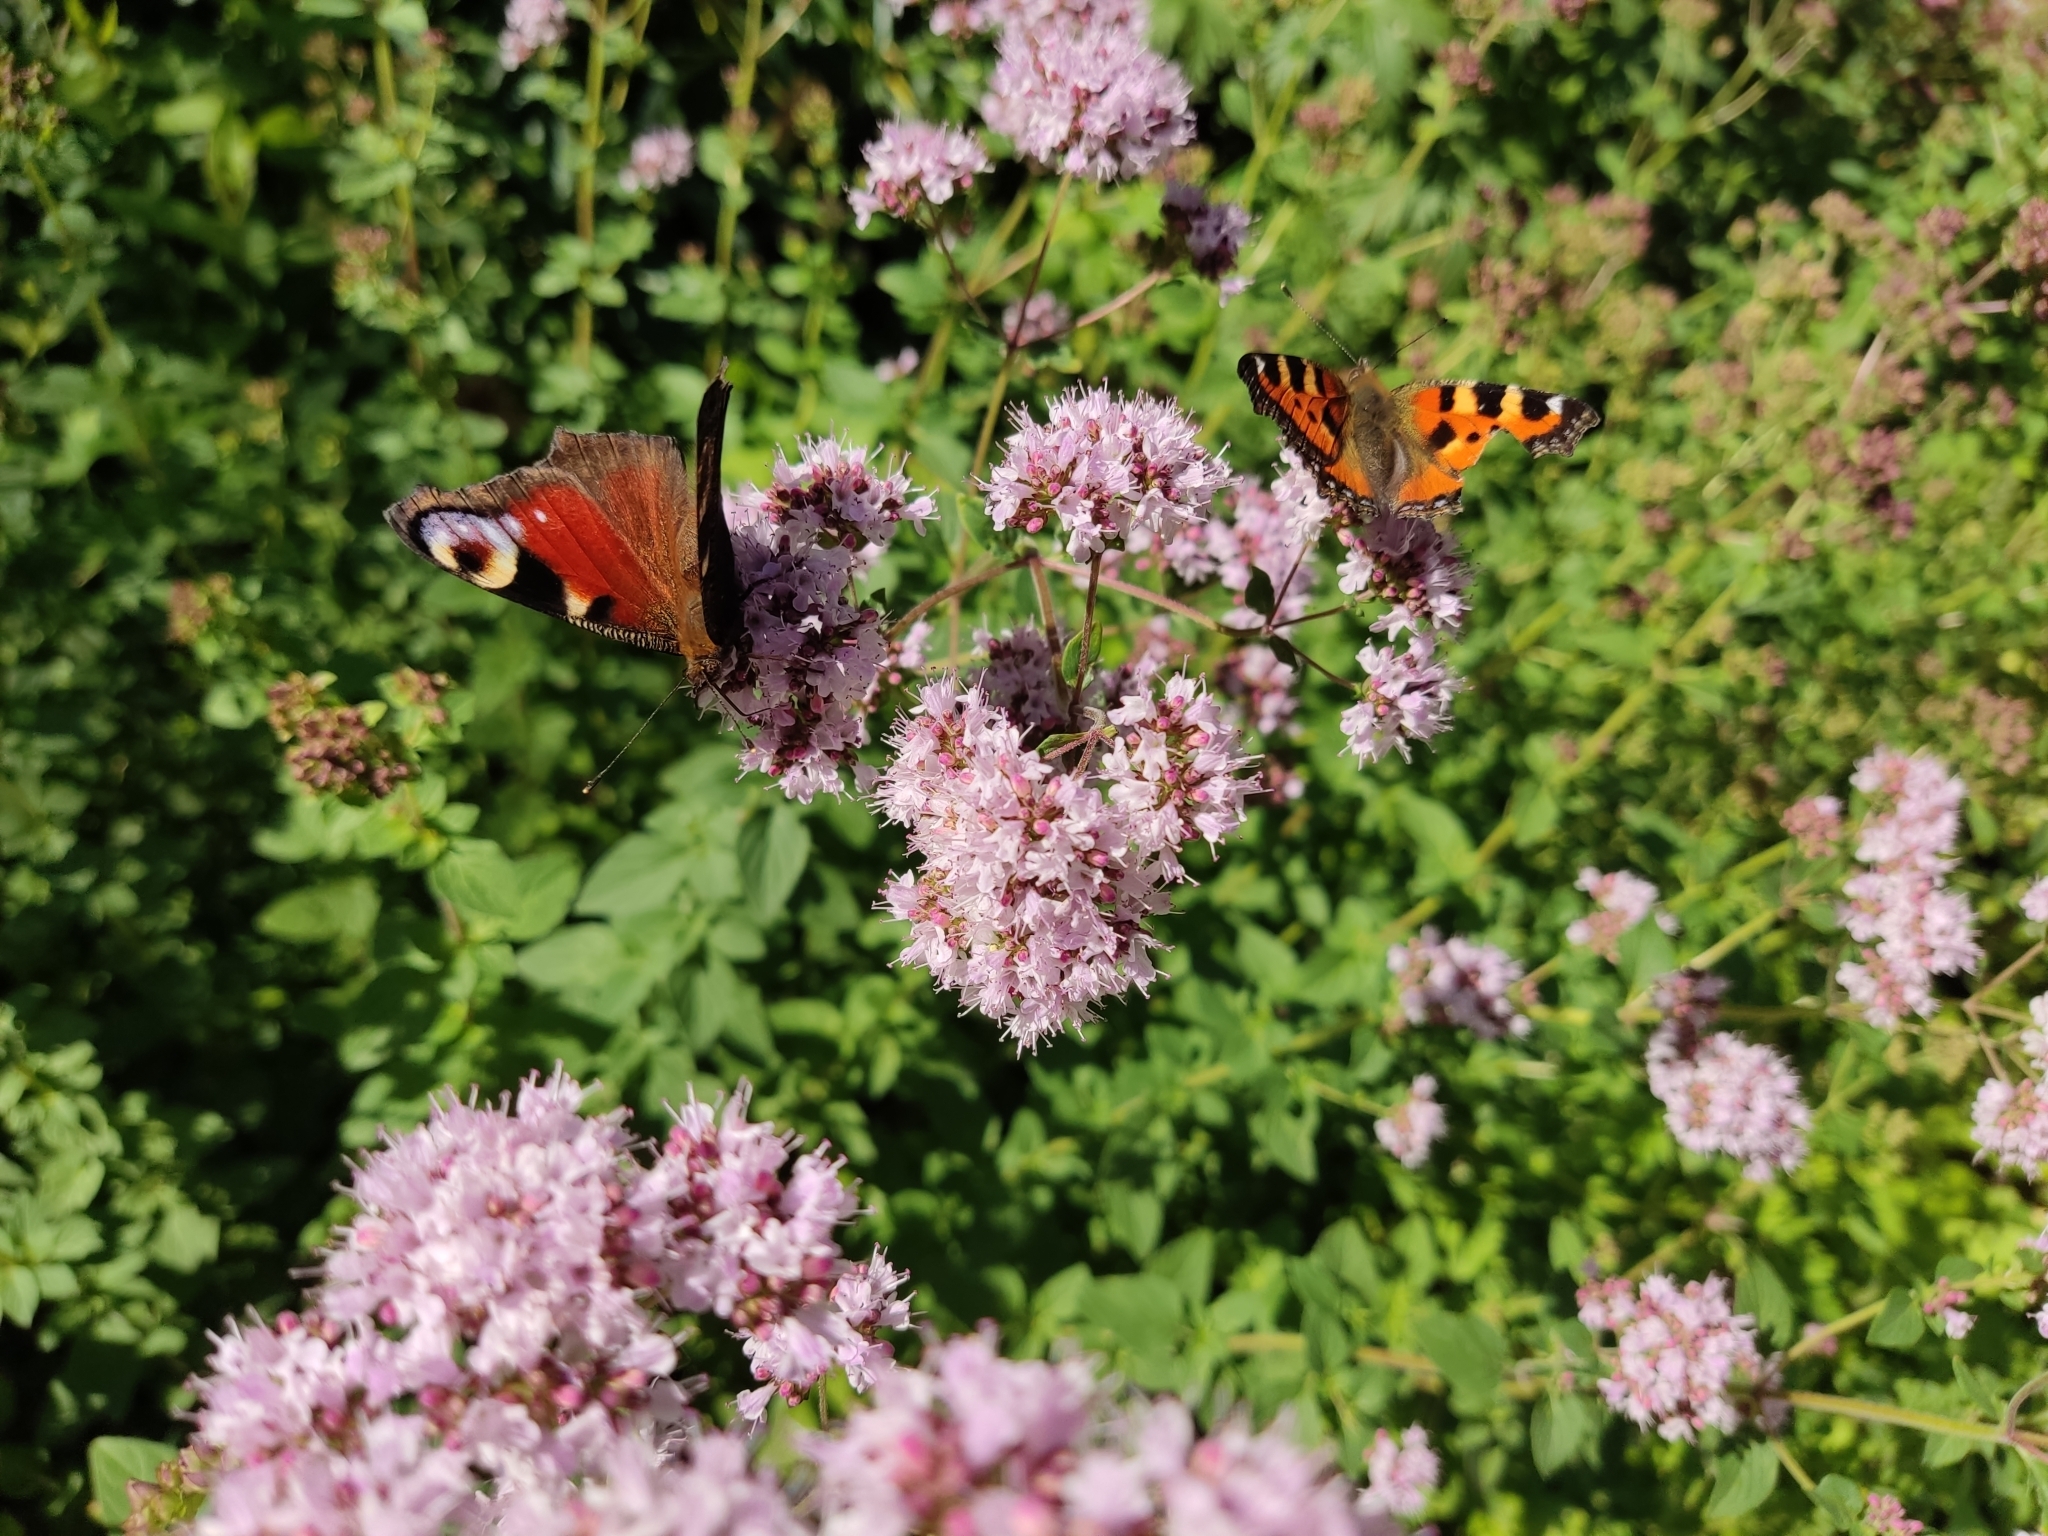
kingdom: Plantae
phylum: Tracheophyta
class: Magnoliopsida
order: Lamiales
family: Lamiaceae
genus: Origanum
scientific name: Origanum vulgare
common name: Wild marjoram
